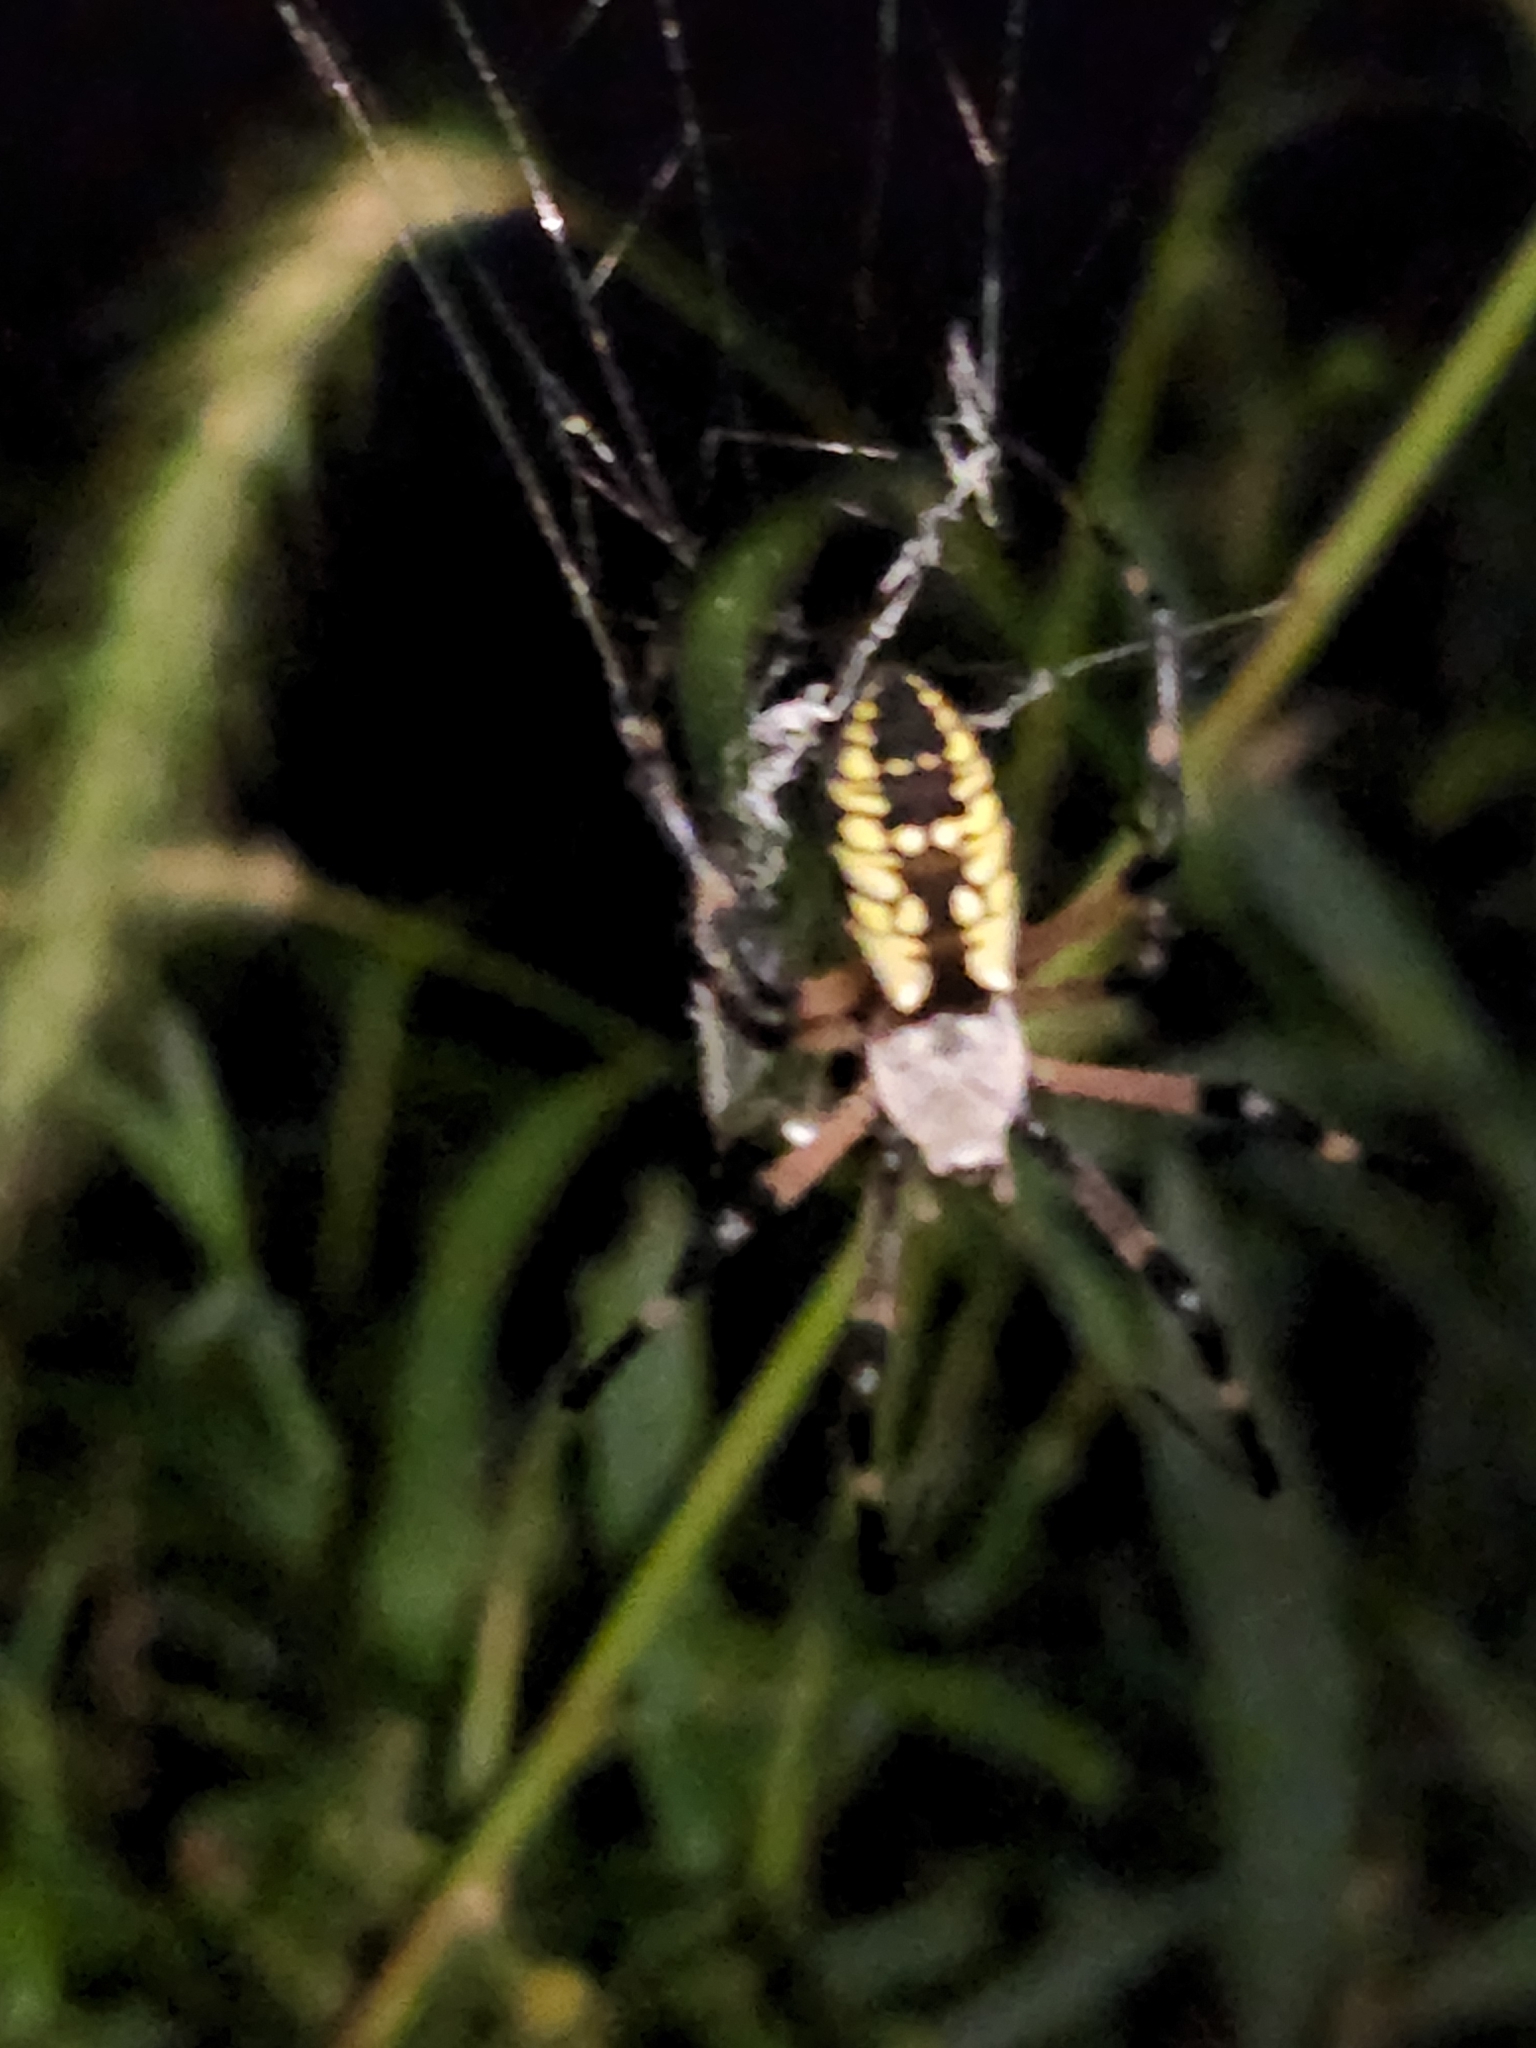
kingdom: Animalia
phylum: Arthropoda
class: Arachnida
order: Araneae
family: Araneidae
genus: Argiope
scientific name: Argiope aurantia
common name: Orb weavers
